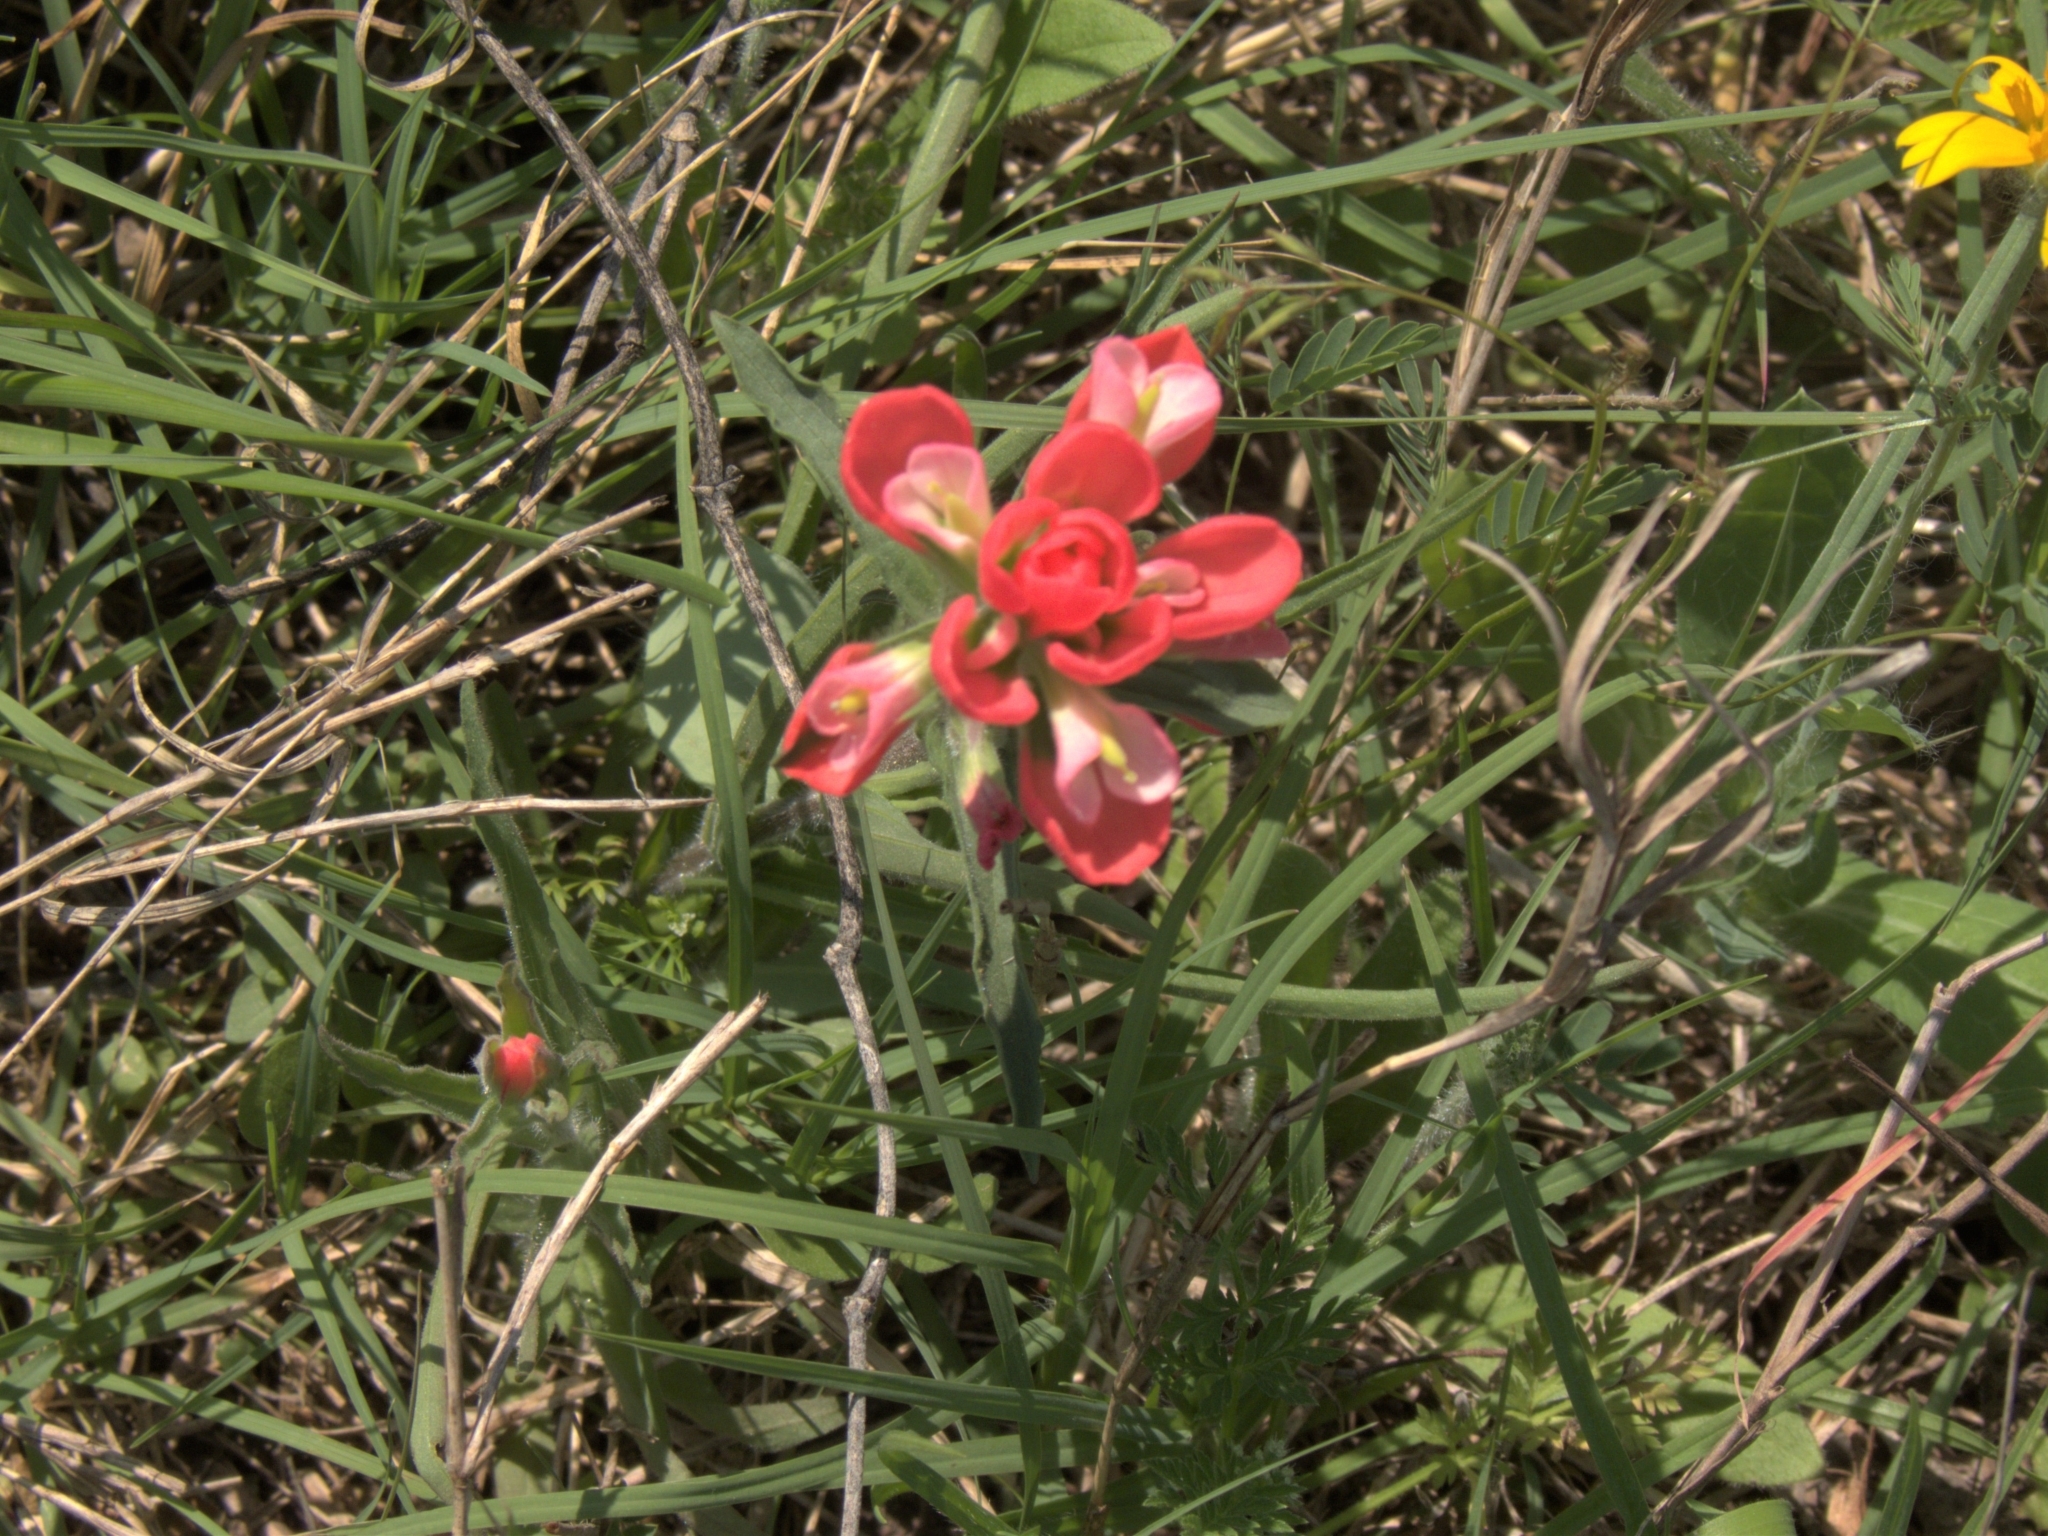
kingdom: Plantae
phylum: Tracheophyta
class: Magnoliopsida
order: Lamiales
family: Orobanchaceae
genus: Castilleja
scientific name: Castilleja indivisa
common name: Texas paintbrush
